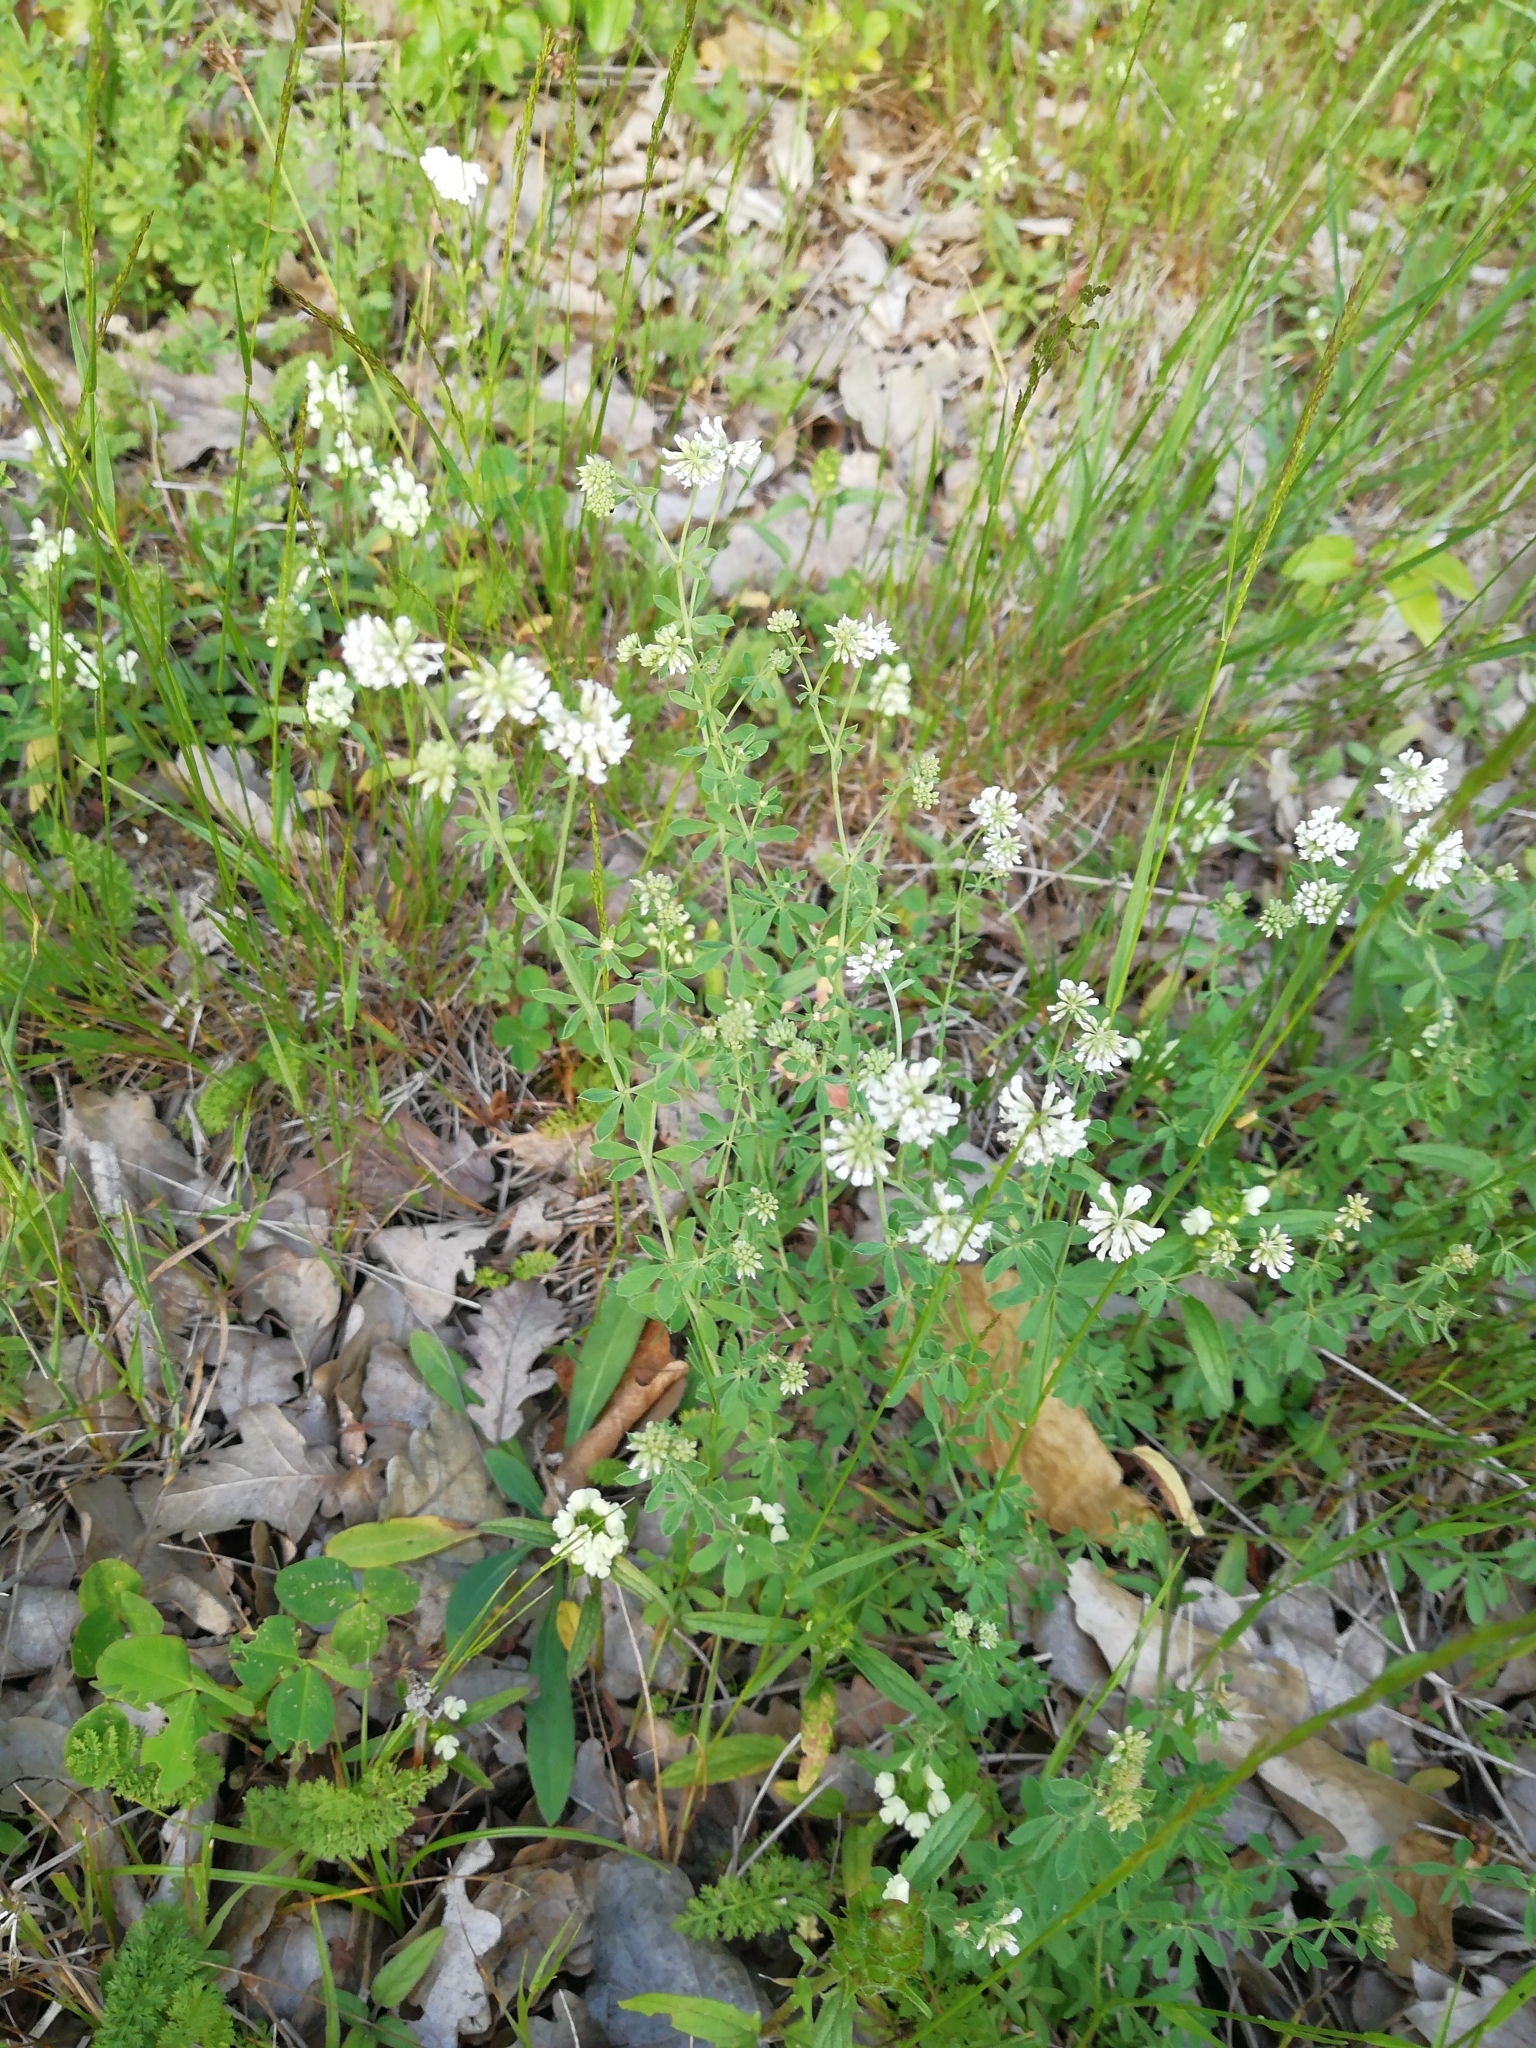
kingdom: Plantae
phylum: Tracheophyta
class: Magnoliopsida
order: Fabales
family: Fabaceae
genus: Lotus
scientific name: Lotus herbaceus
